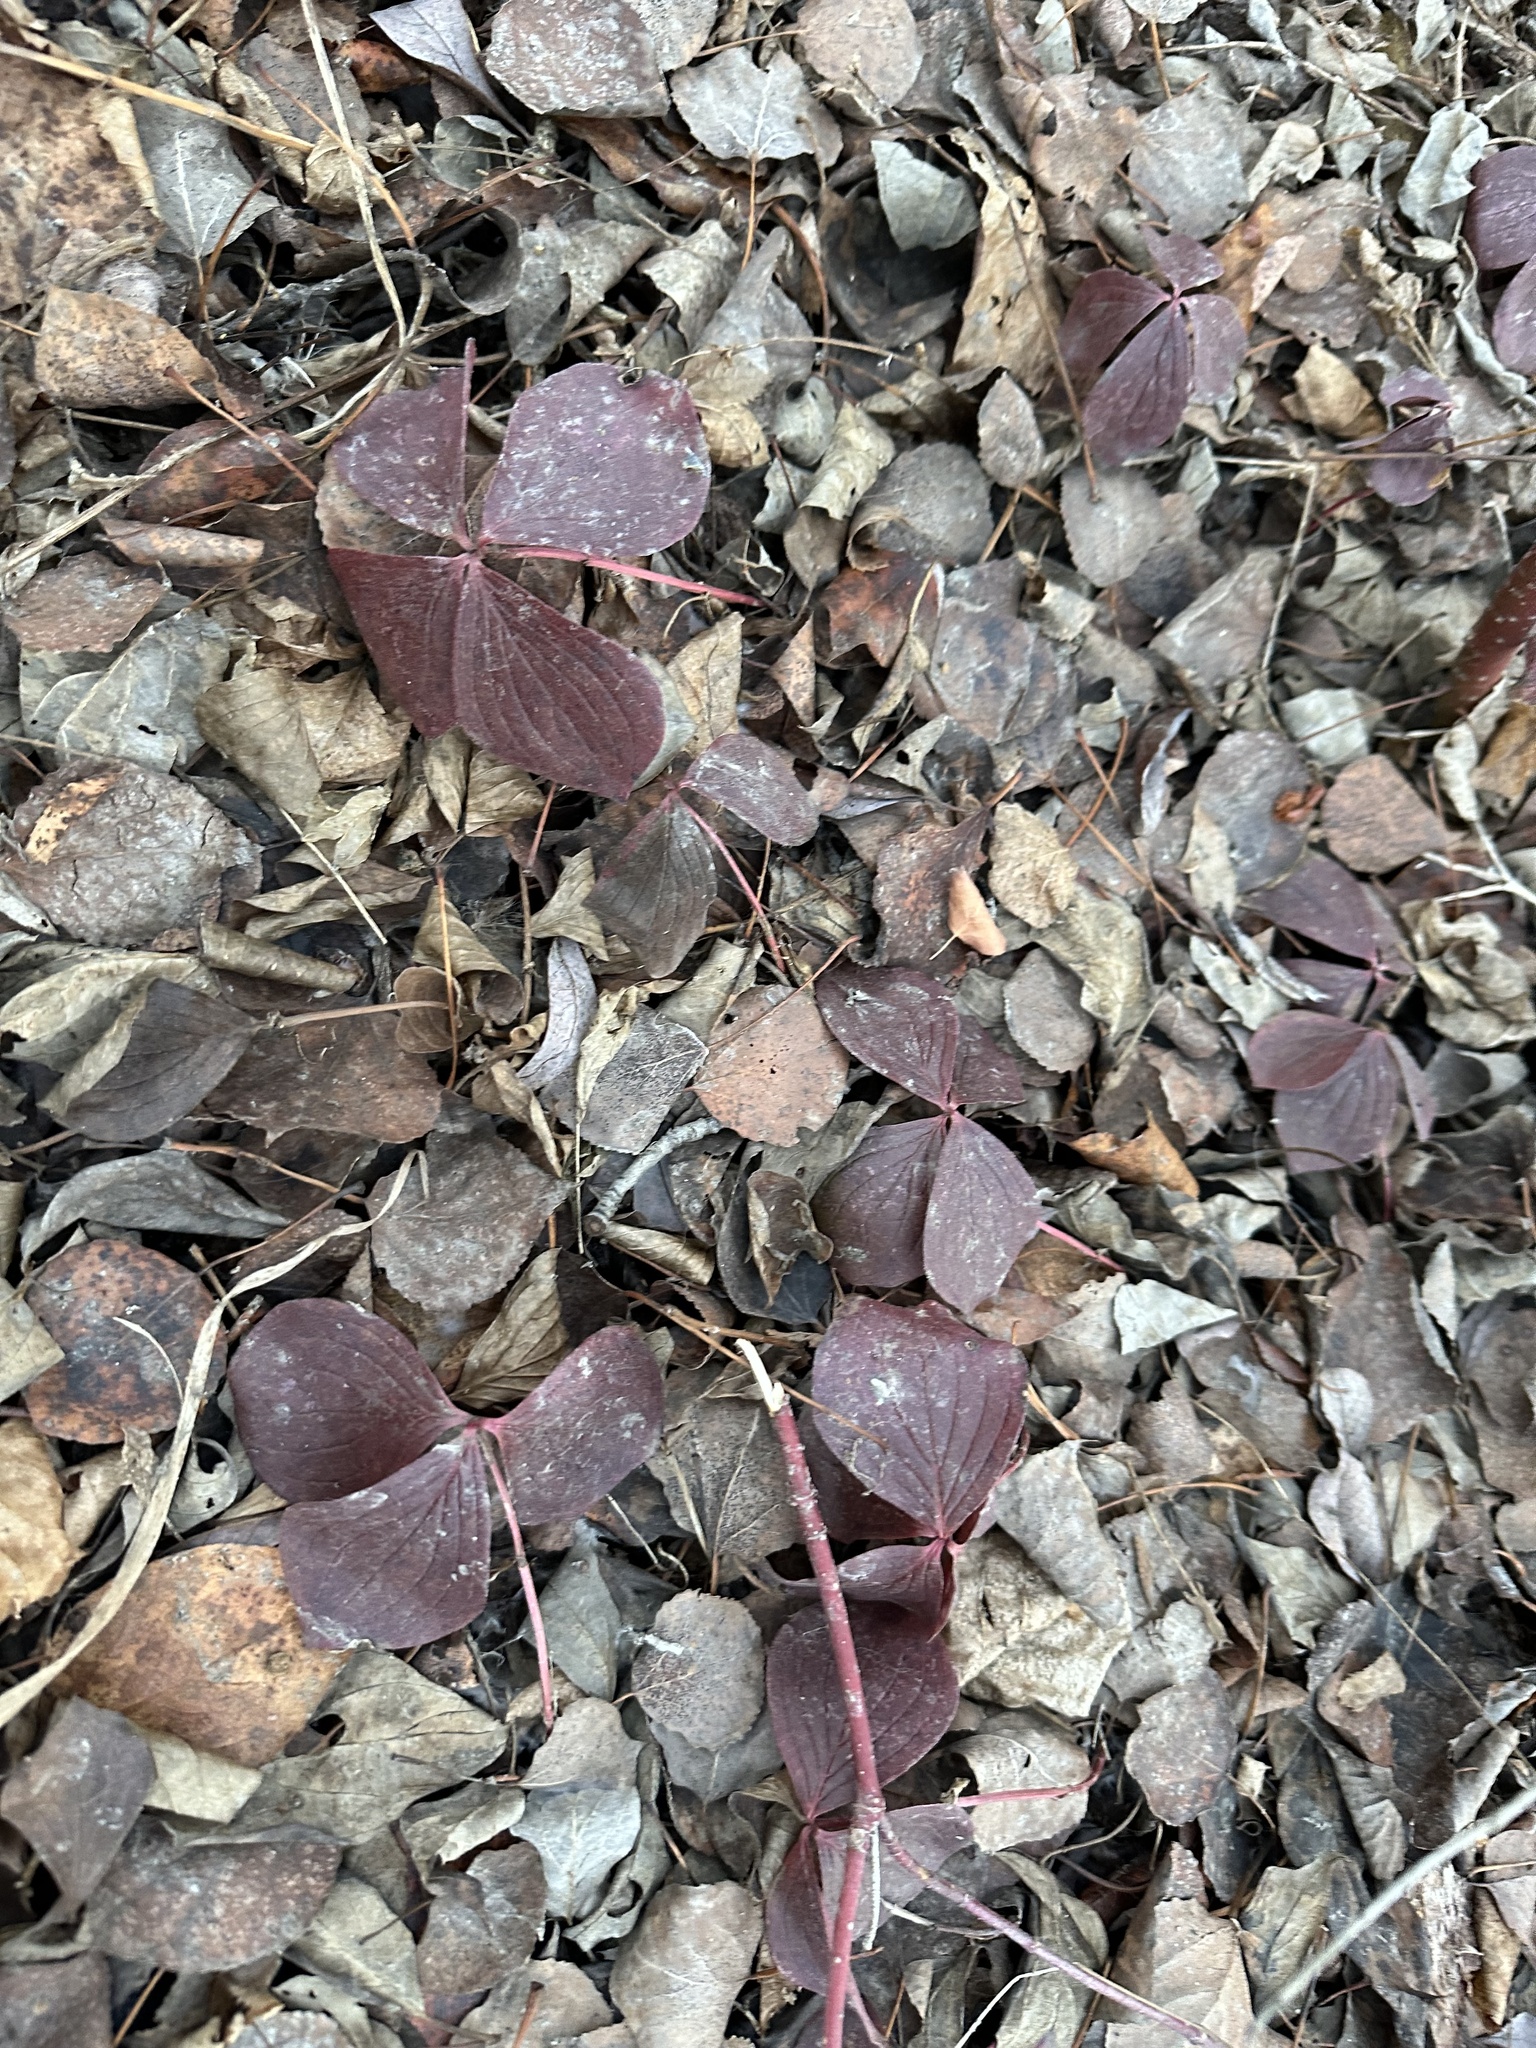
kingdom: Plantae
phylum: Tracheophyta
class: Magnoliopsida
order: Cornales
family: Cornaceae
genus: Cornus
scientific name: Cornus canadensis
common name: Creeping dogwood
